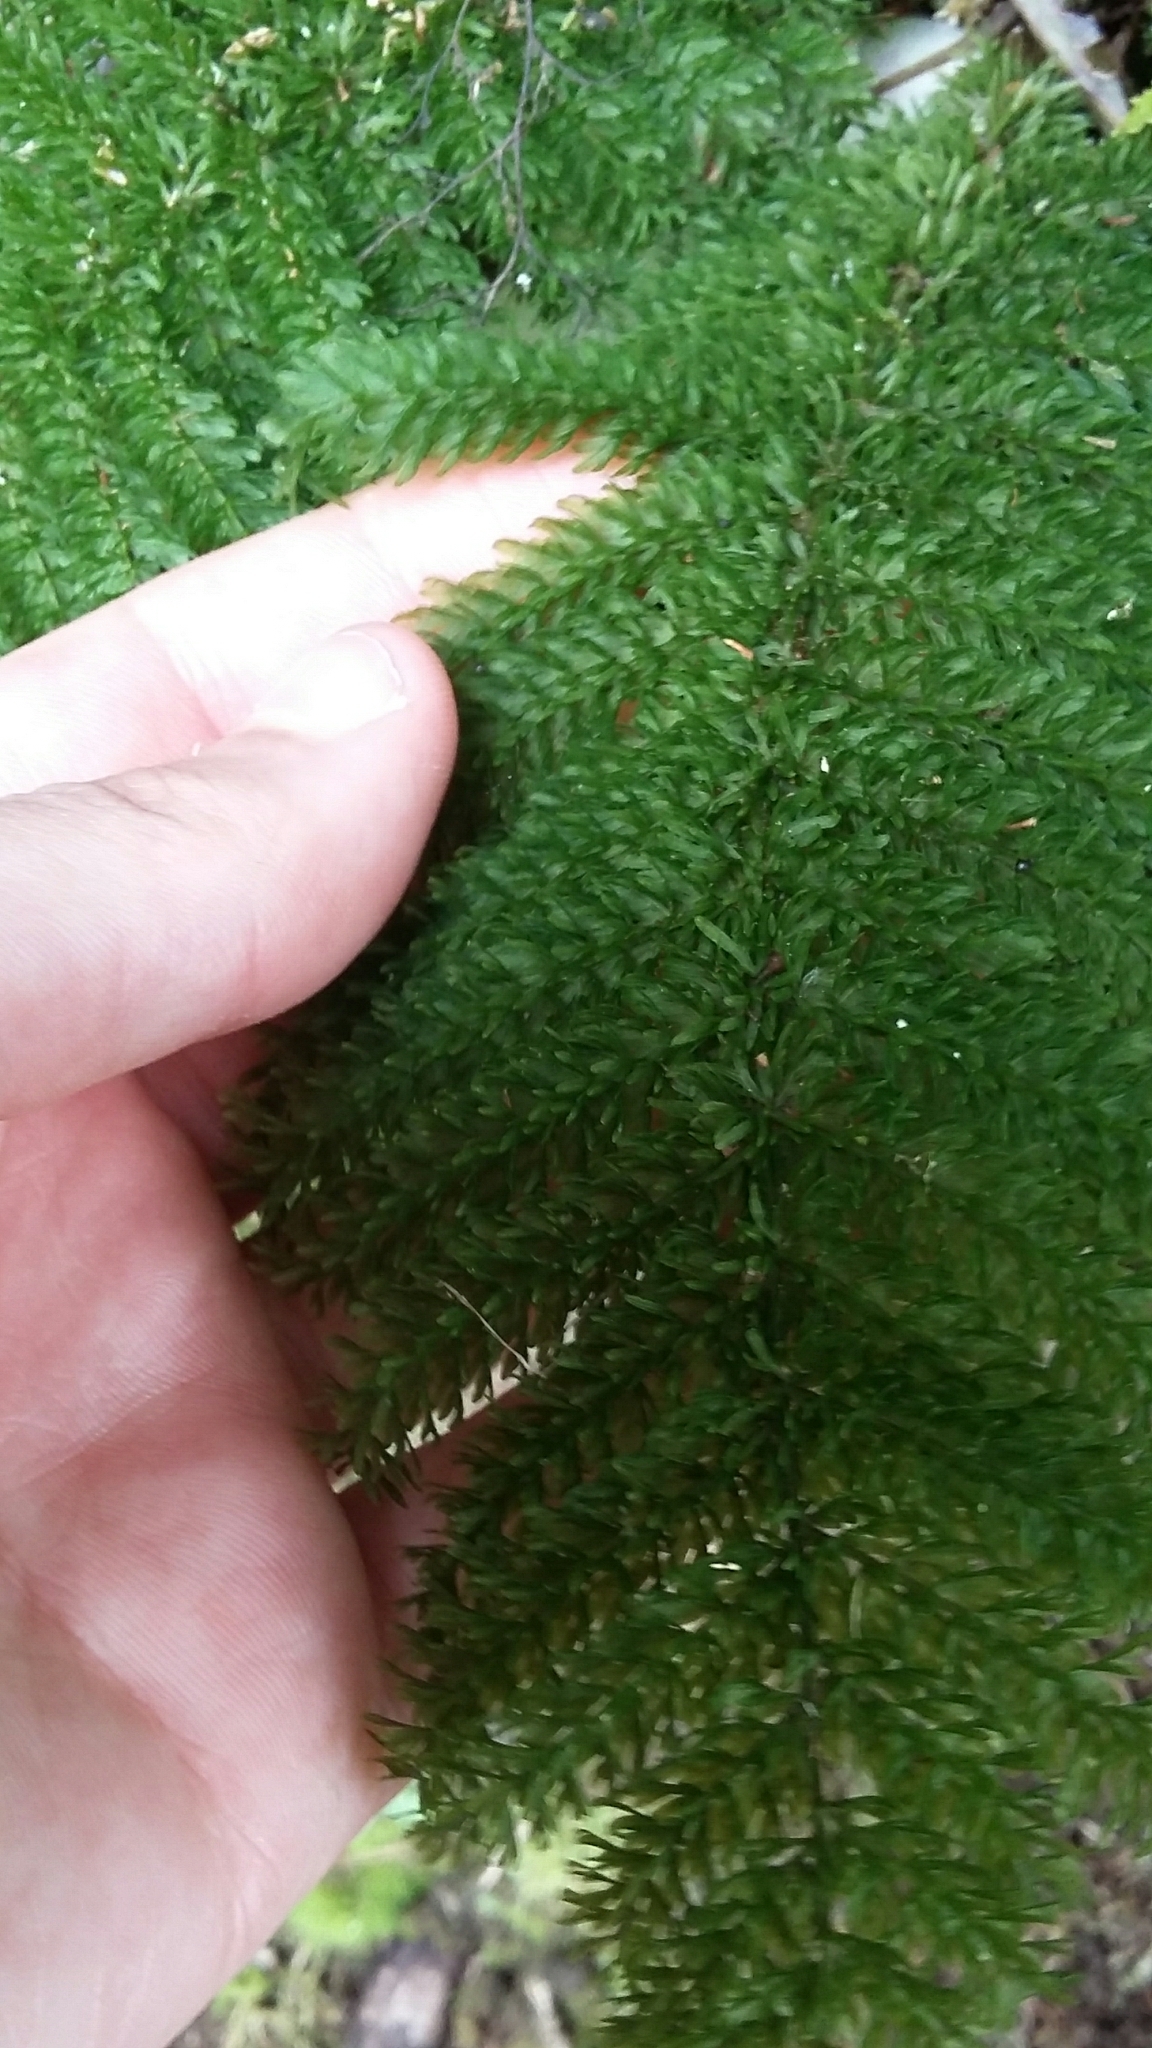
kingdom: Plantae
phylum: Tracheophyta
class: Polypodiopsida
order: Osmundales
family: Osmundaceae
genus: Leptopteris
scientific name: Leptopteris superba
